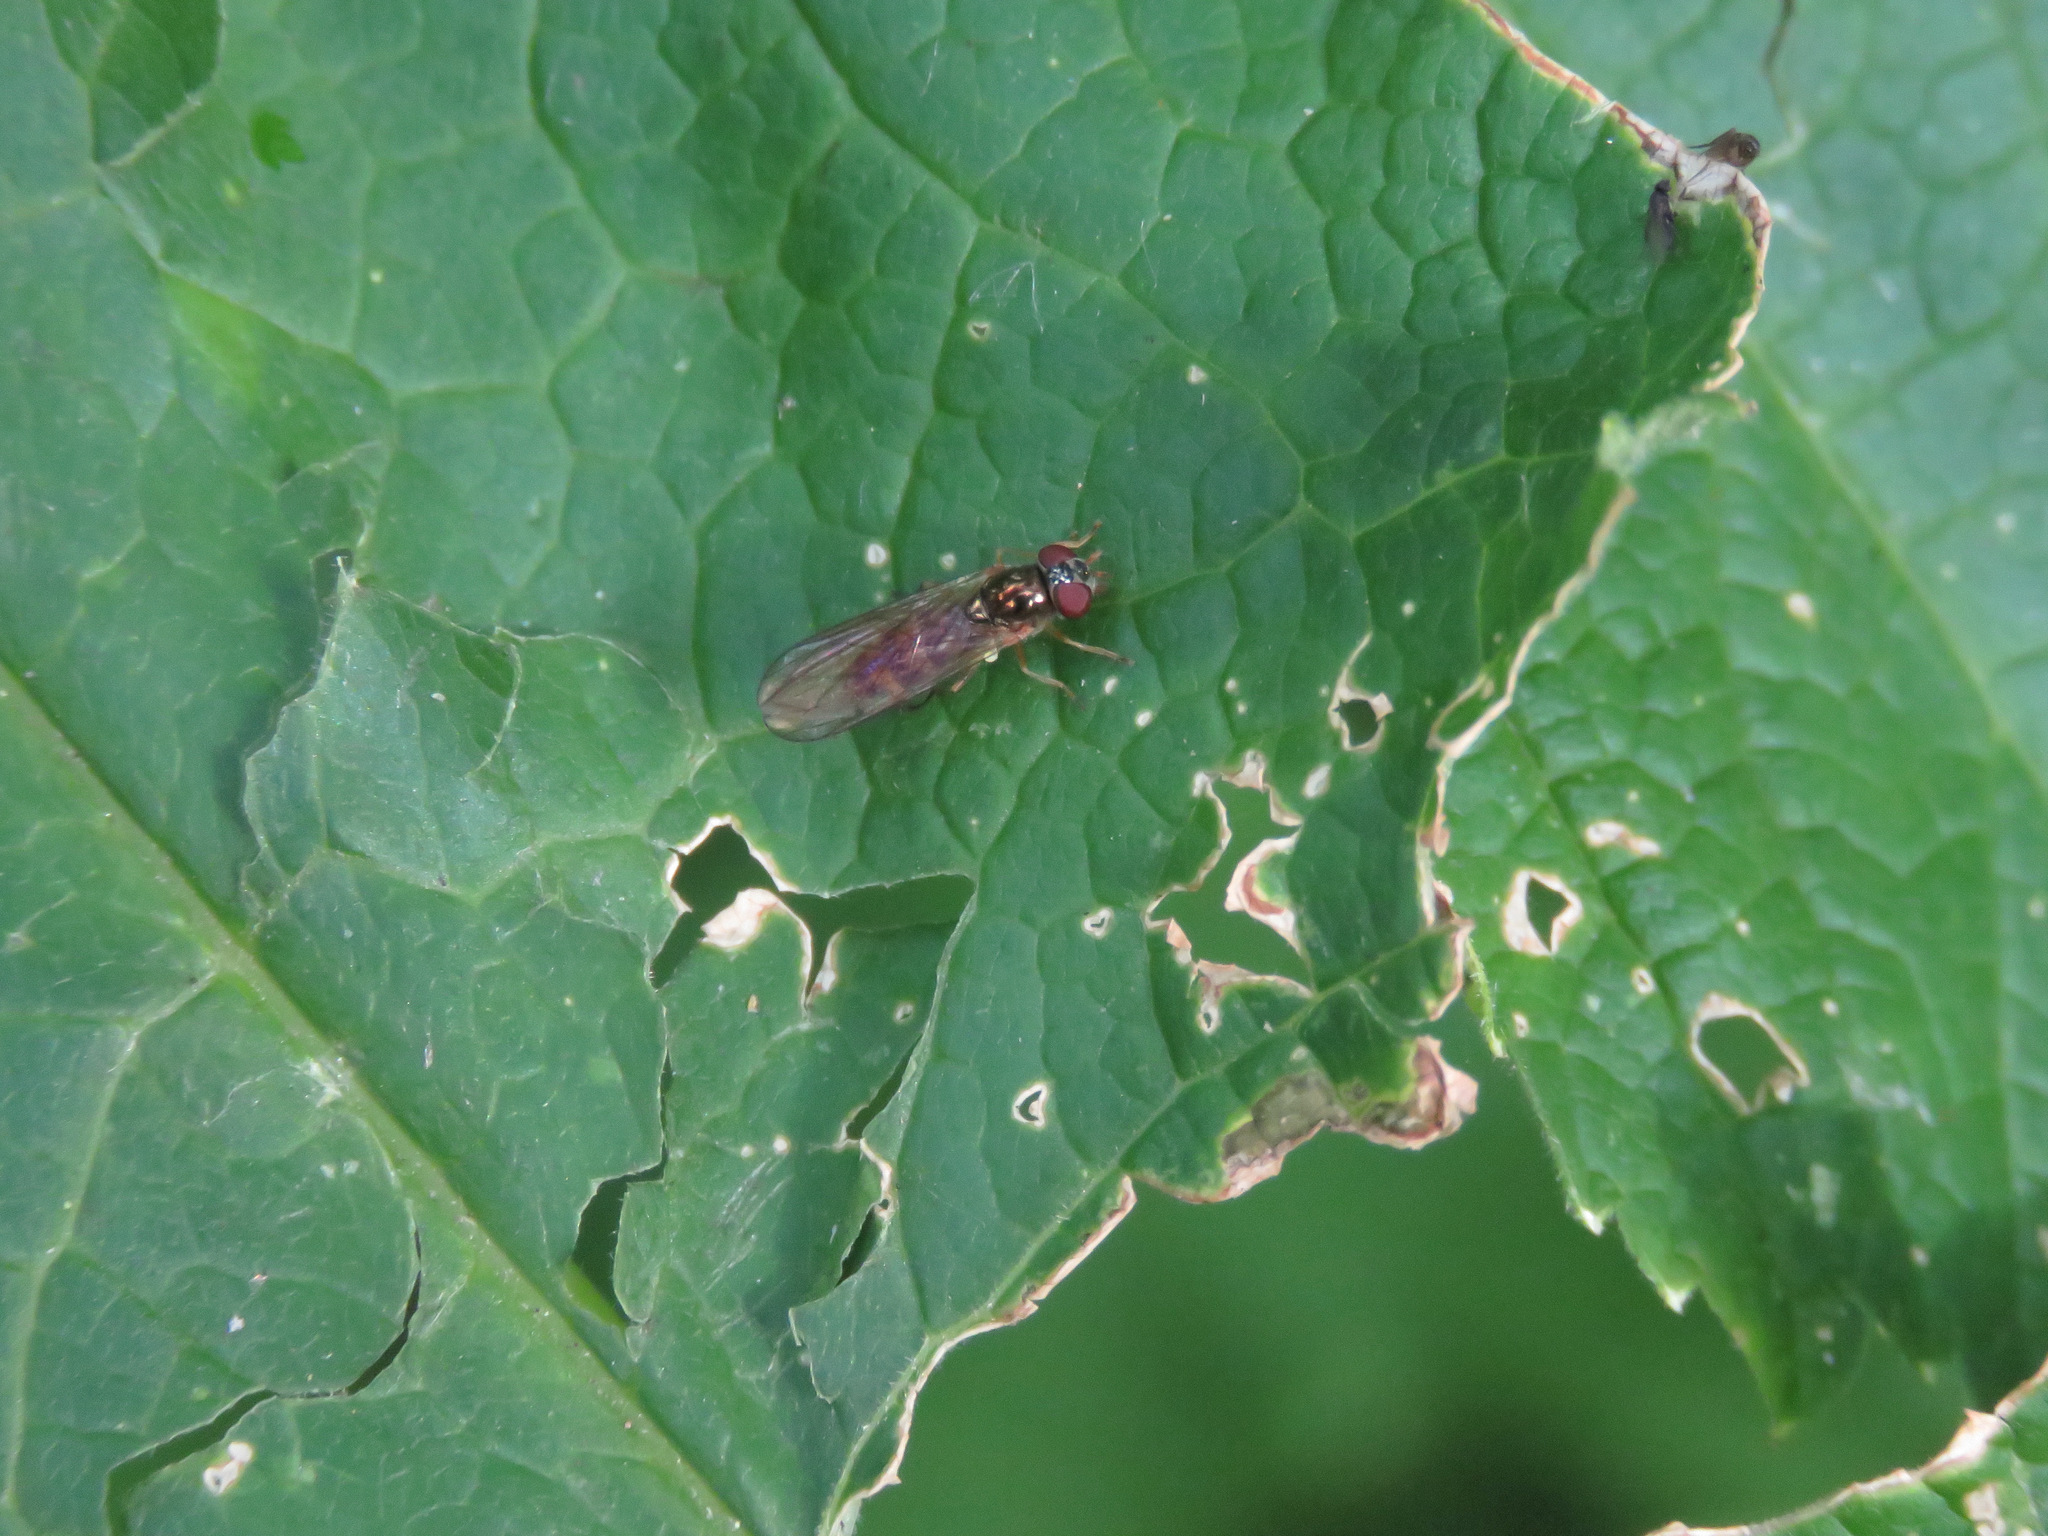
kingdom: Animalia
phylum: Arthropoda
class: Insecta
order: Diptera
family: Syrphidae
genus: Melanostoma
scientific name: Melanostoma mellina
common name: Hover fly
